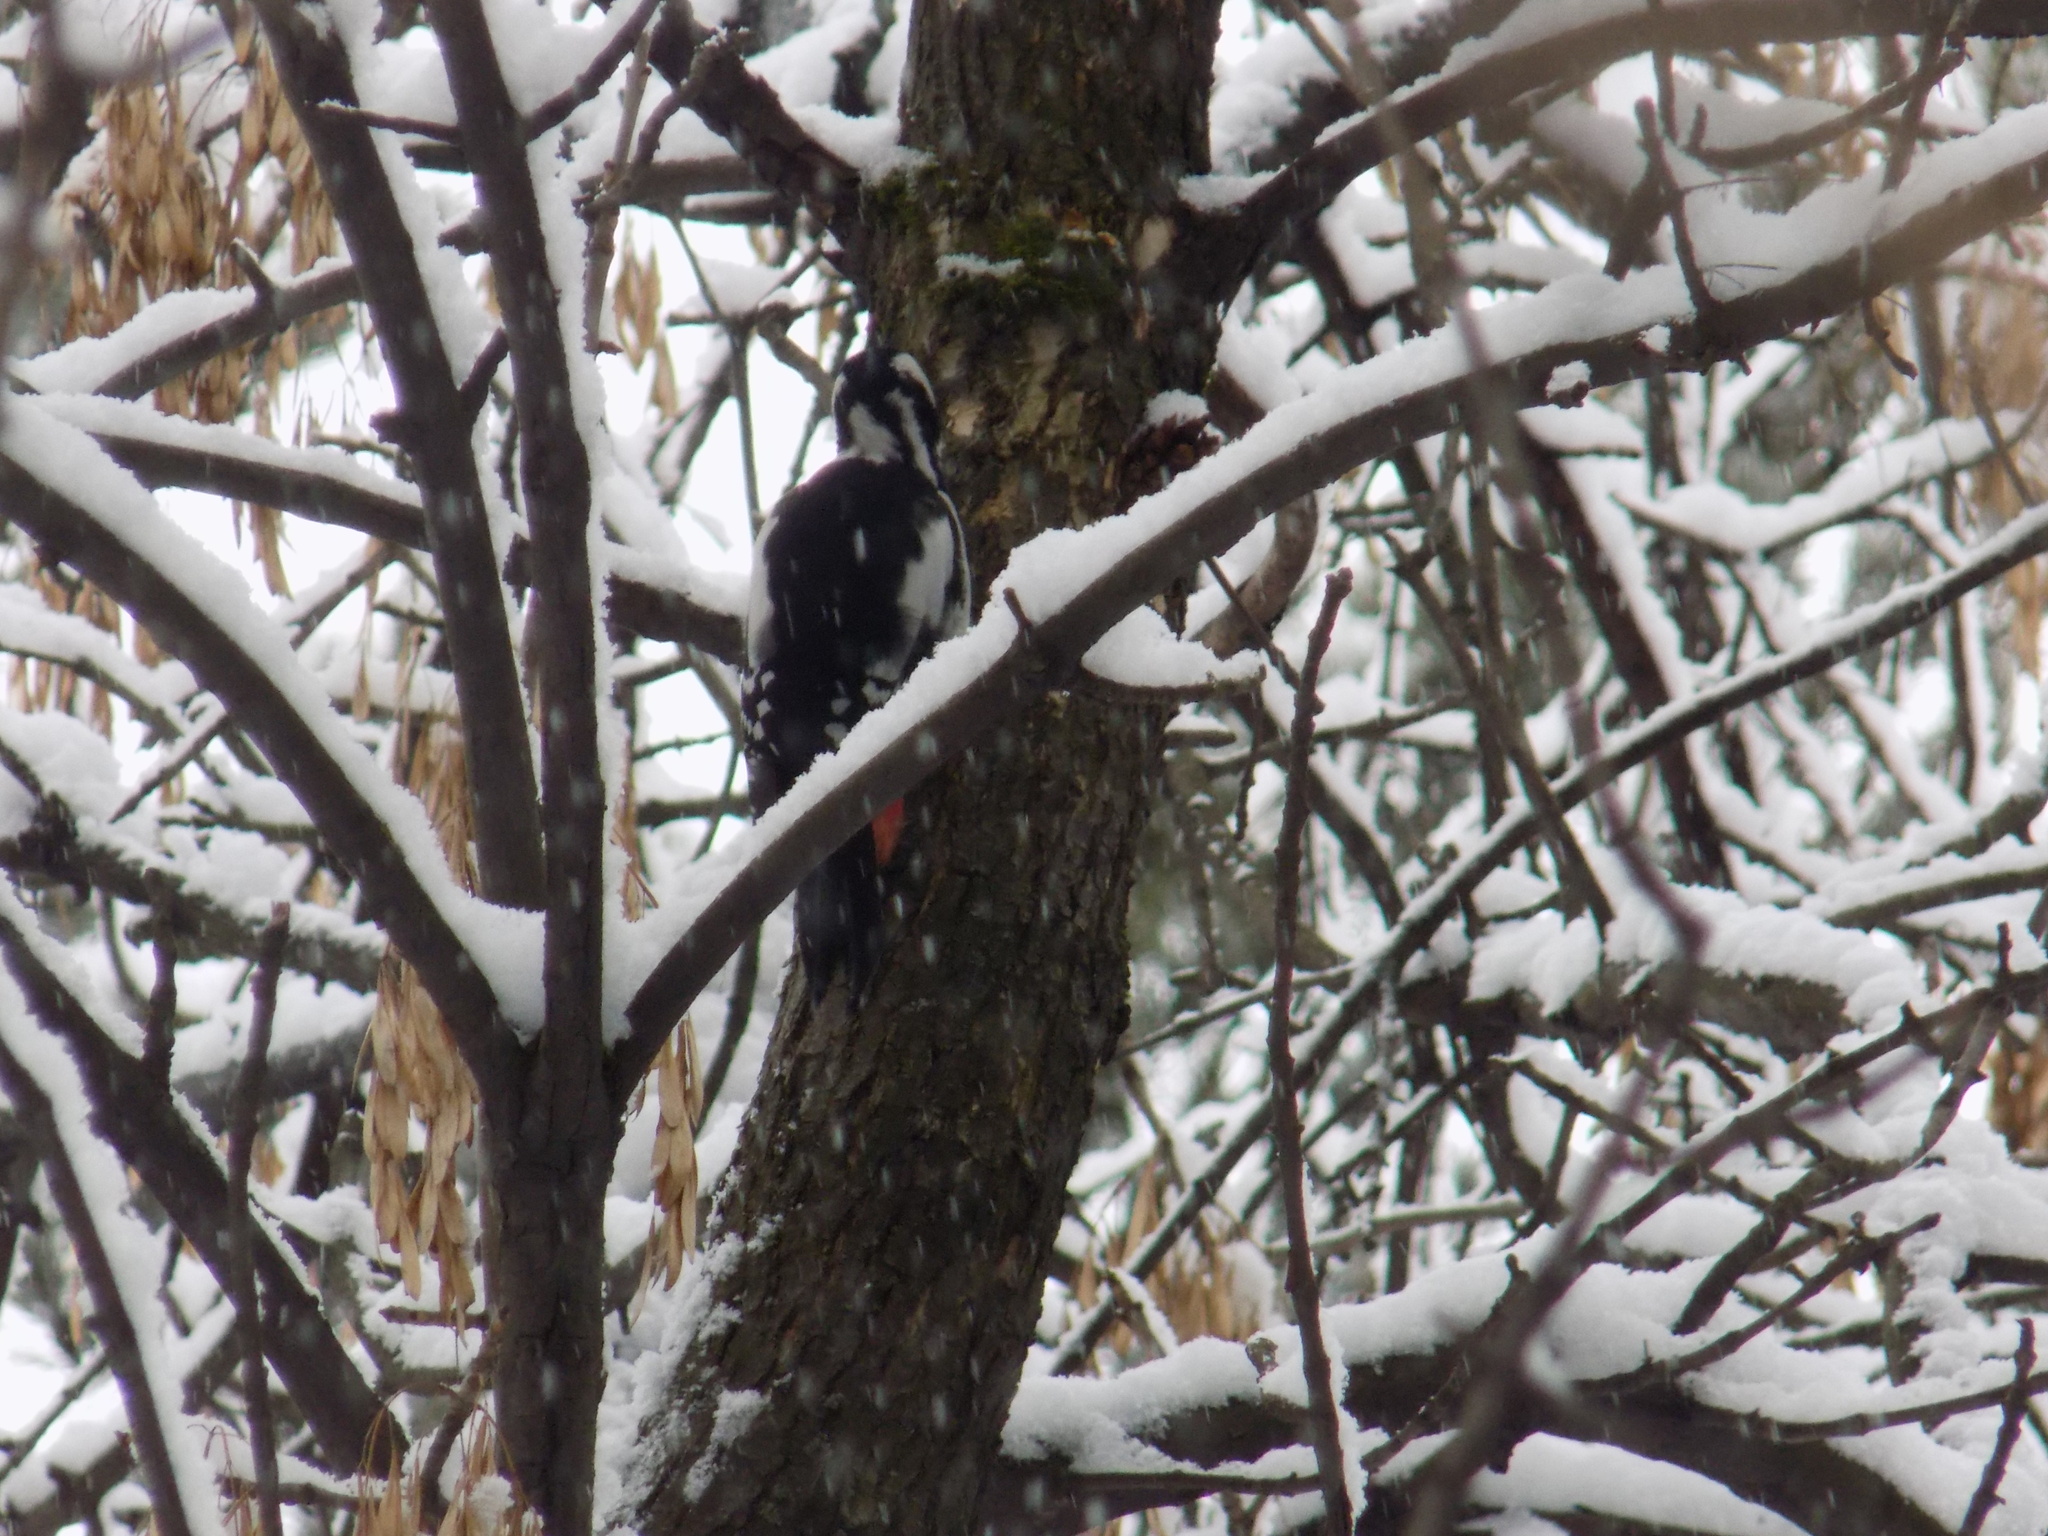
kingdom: Animalia
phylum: Chordata
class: Aves
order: Piciformes
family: Picidae
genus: Dendrocopos
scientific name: Dendrocopos major
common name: Great spotted woodpecker
